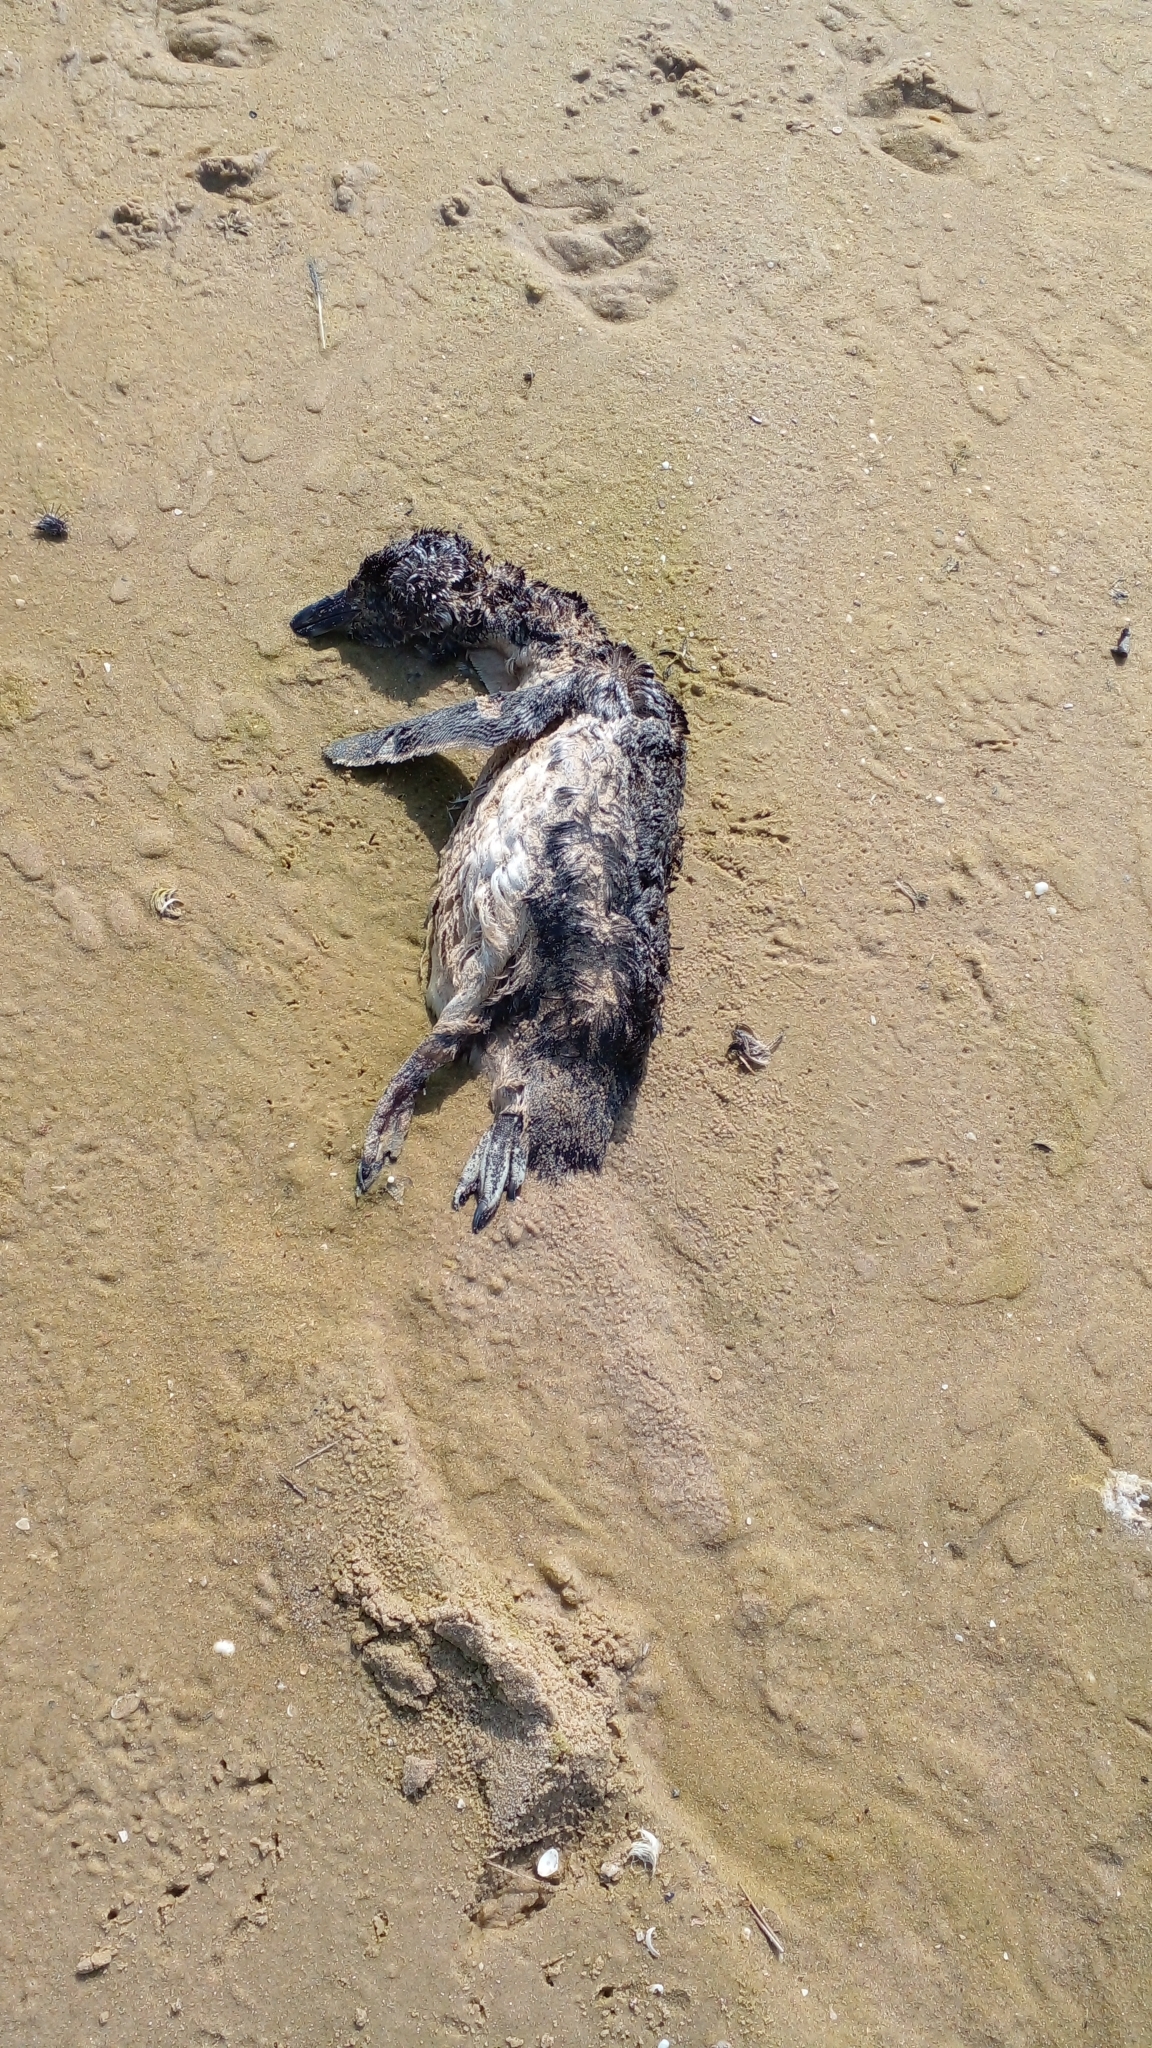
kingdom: Animalia
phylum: Chordata
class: Aves
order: Sphenisciformes
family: Spheniscidae
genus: Spheniscus
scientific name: Spheniscus magellanicus
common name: Magellanic penguin
